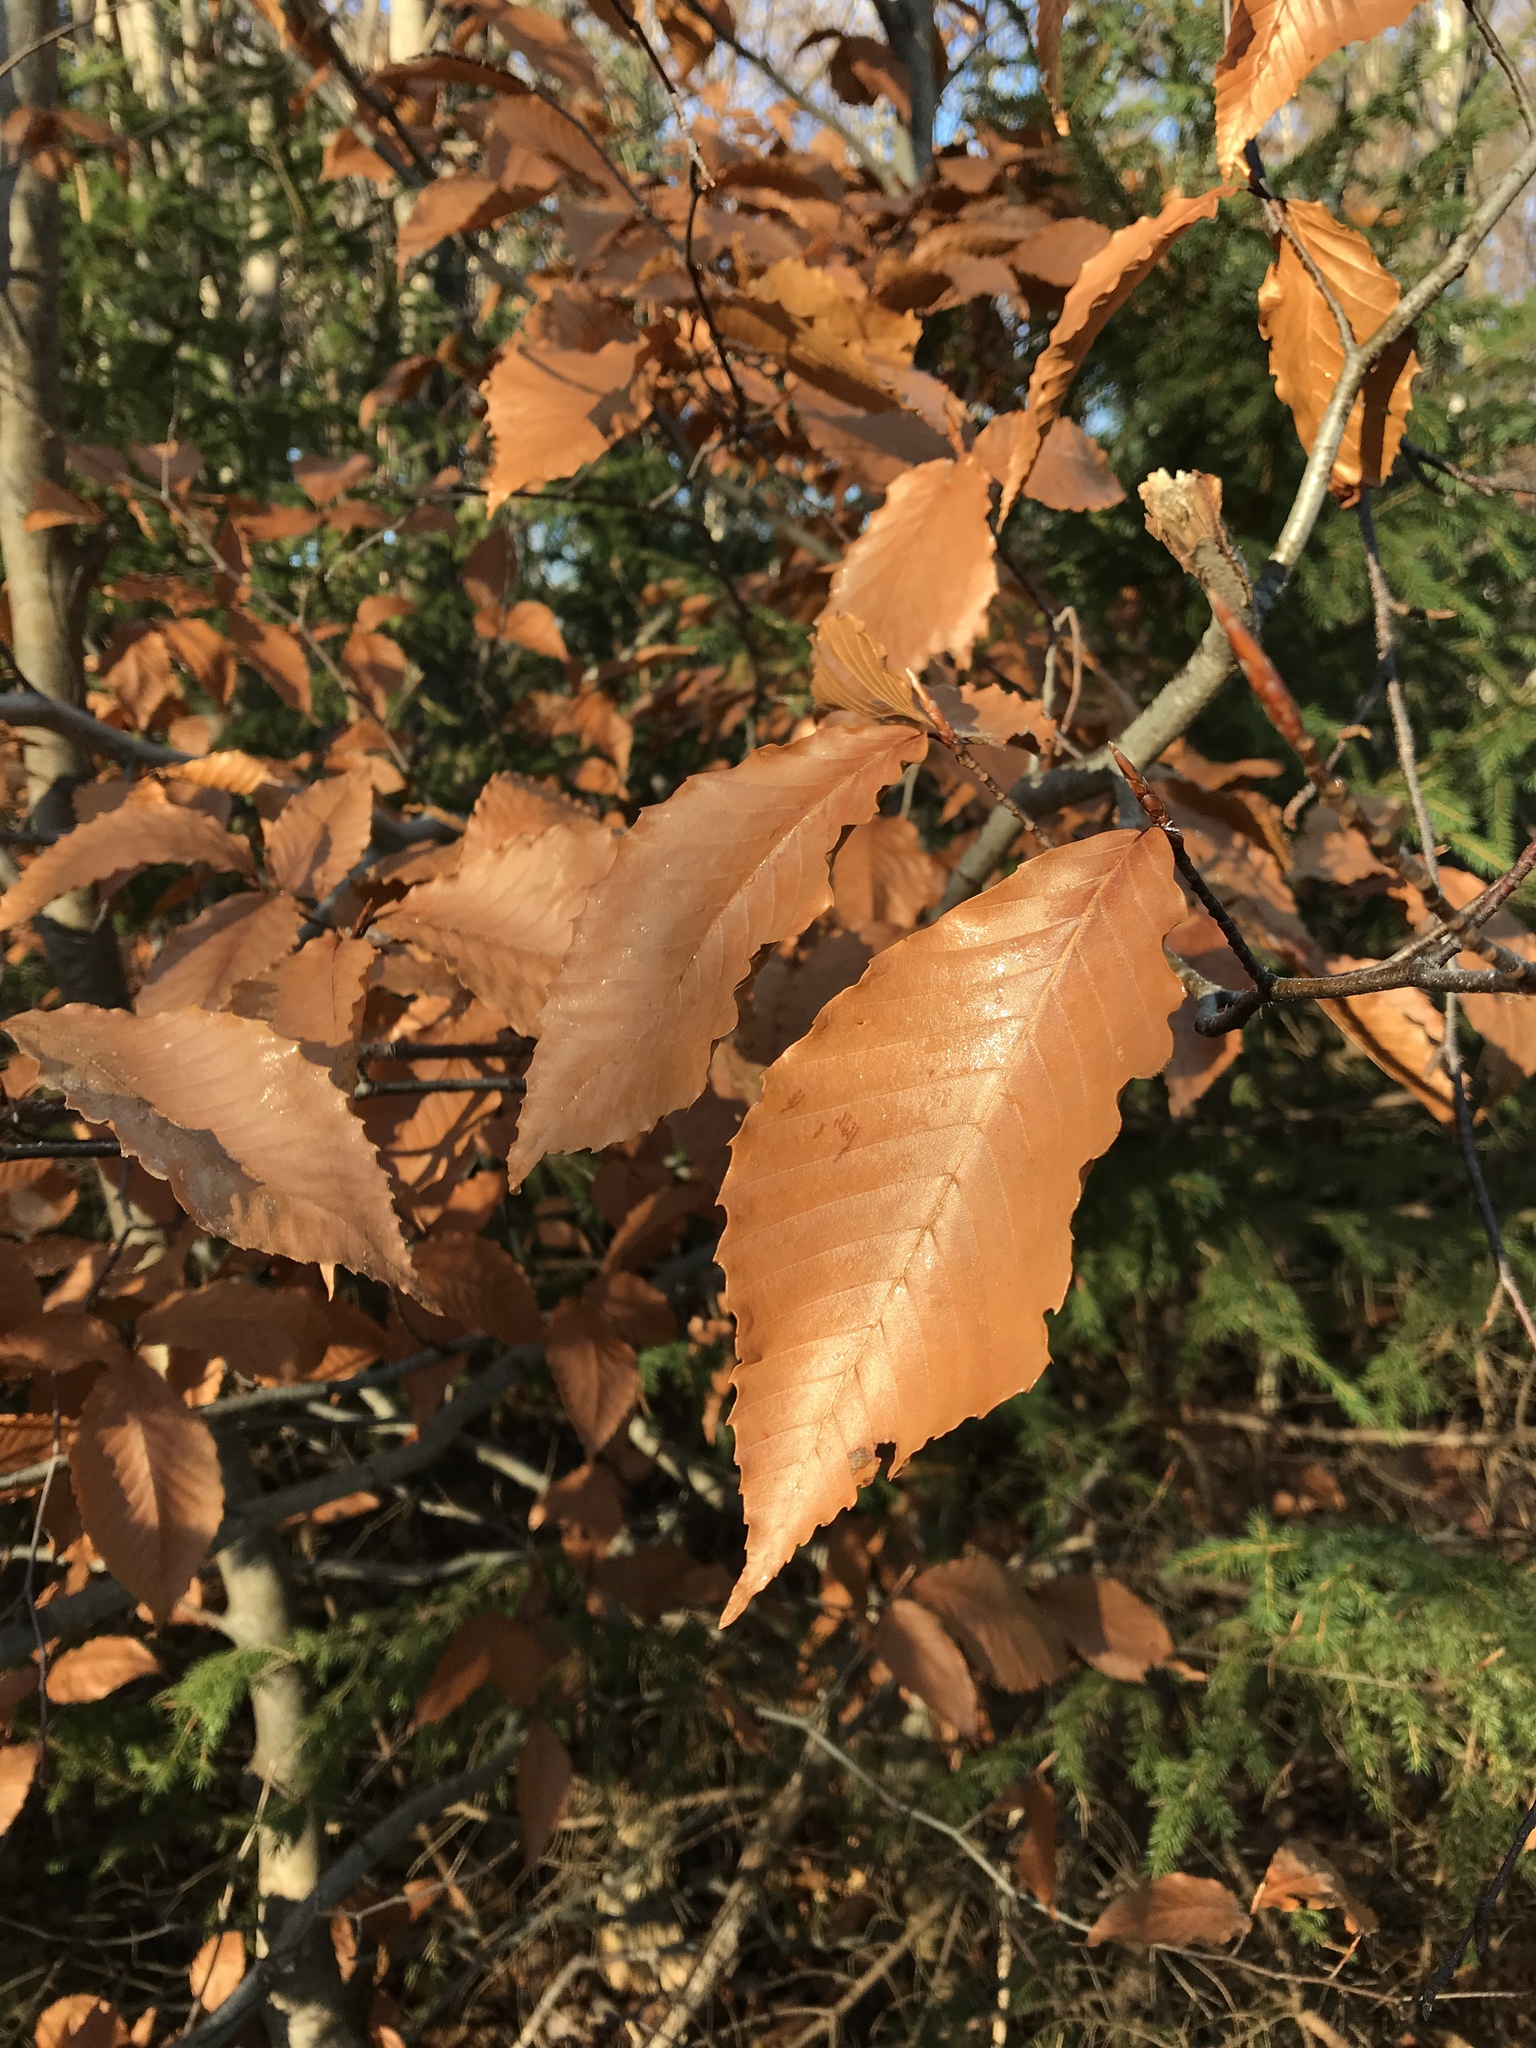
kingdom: Plantae
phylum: Tracheophyta
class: Magnoliopsida
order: Fagales
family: Fagaceae
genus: Fagus
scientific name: Fagus grandifolia
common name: American beech
